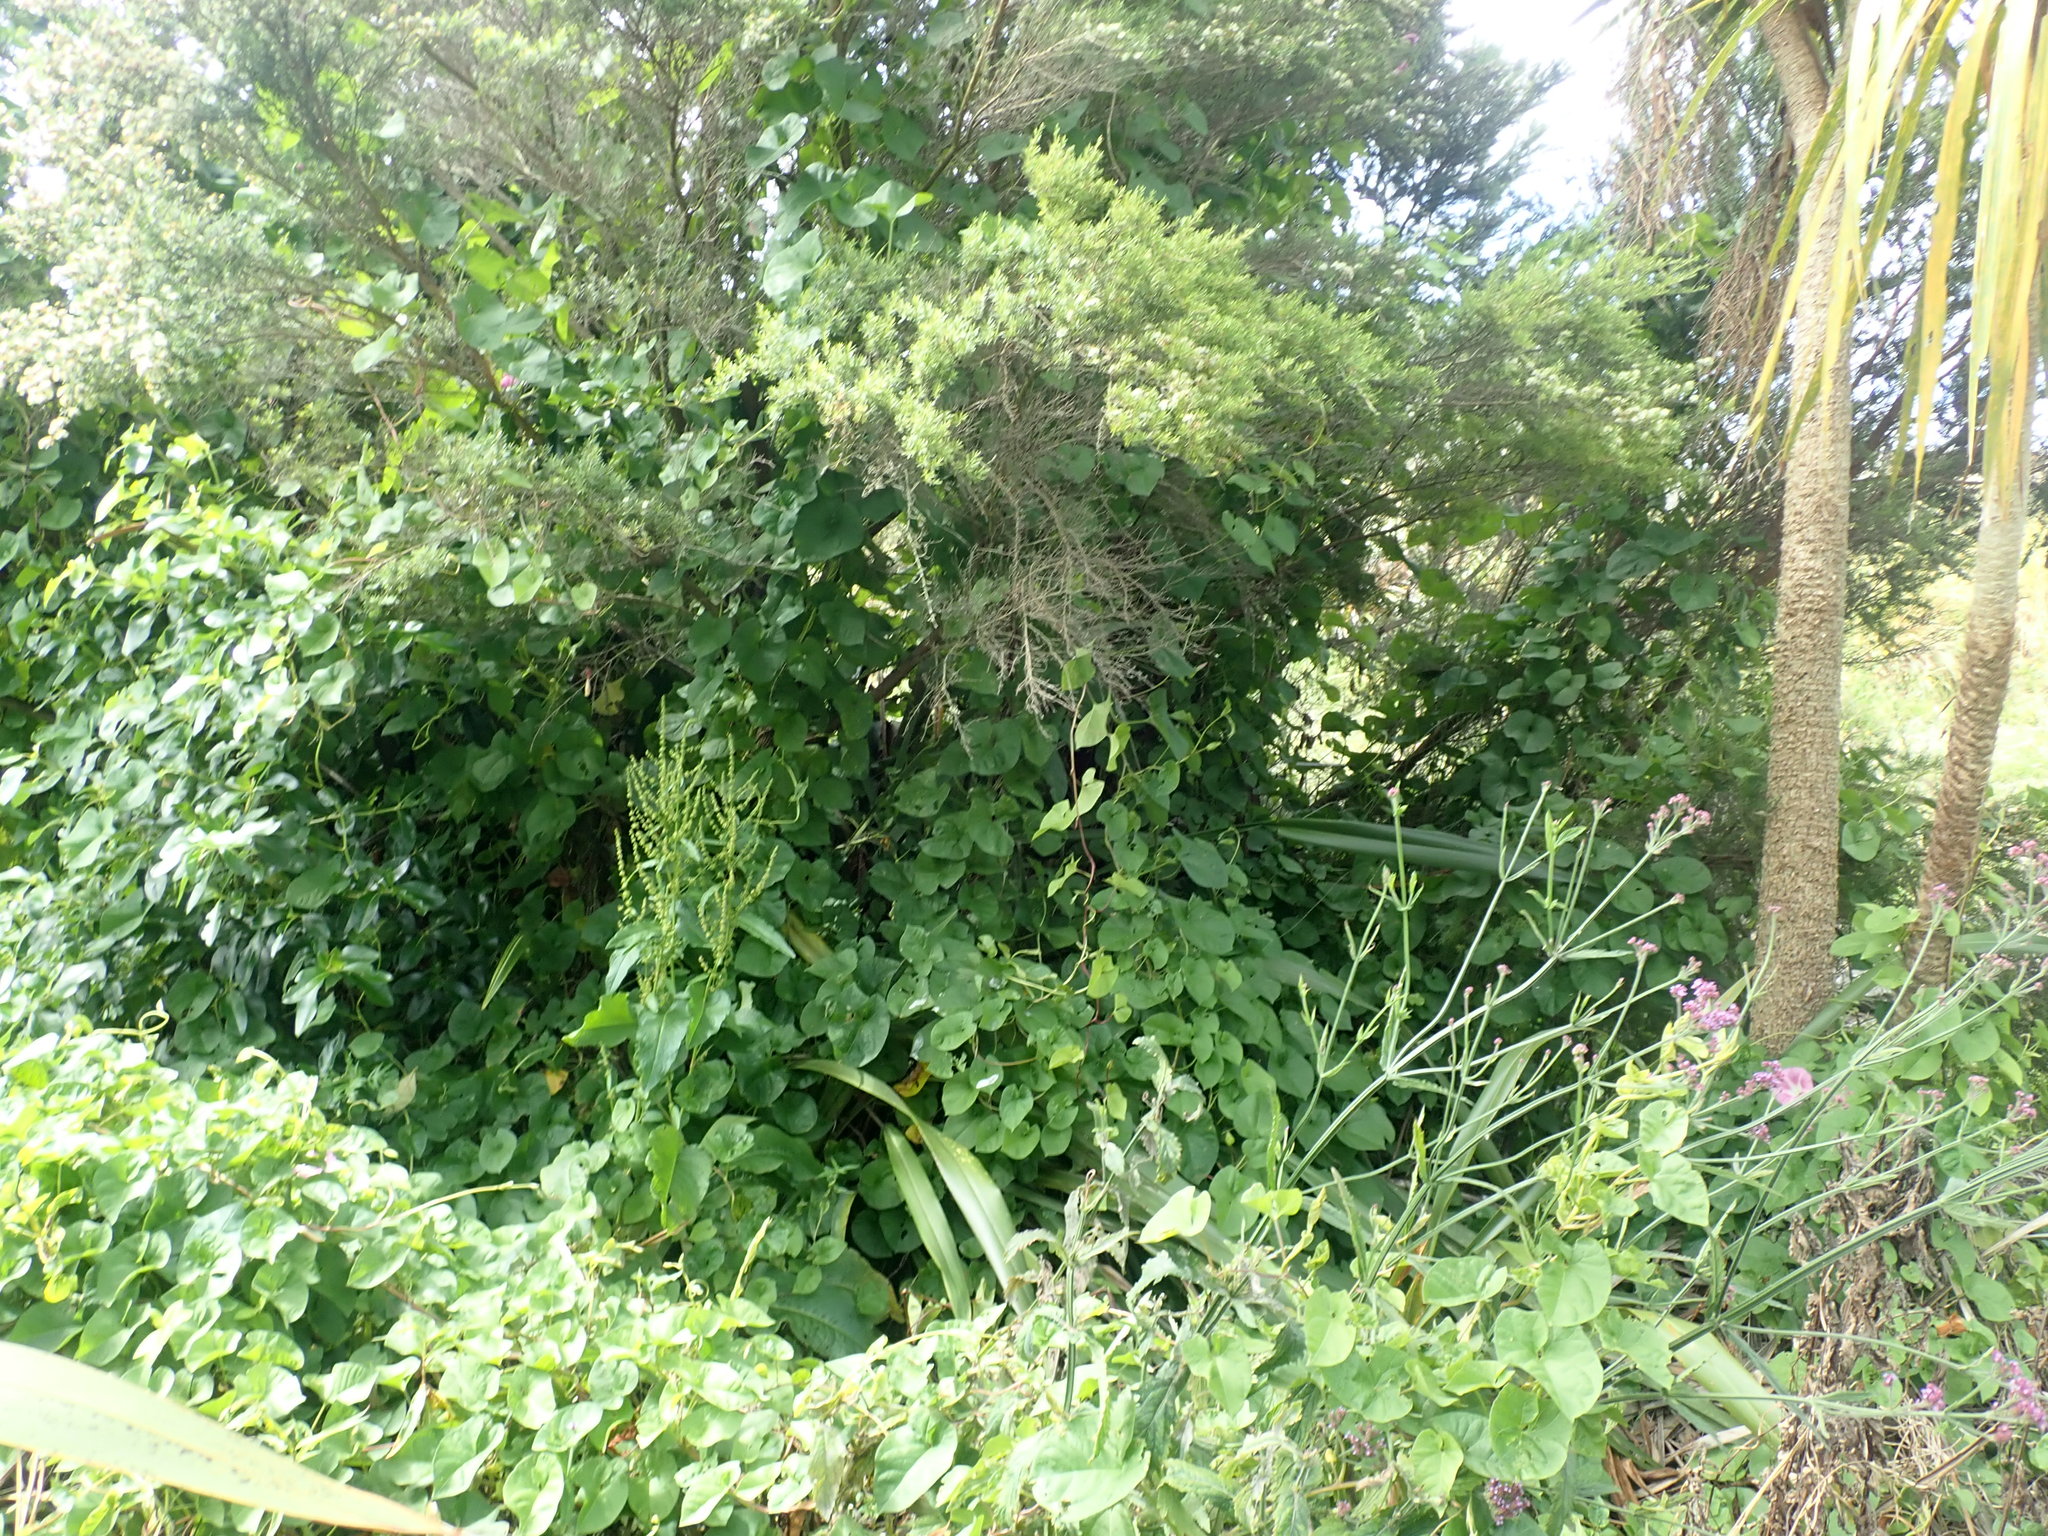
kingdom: Plantae
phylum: Tracheophyta
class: Magnoliopsida
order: Solanales
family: Convolvulaceae
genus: Calystegia
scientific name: Calystegia sepium
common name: Hedge bindweed
